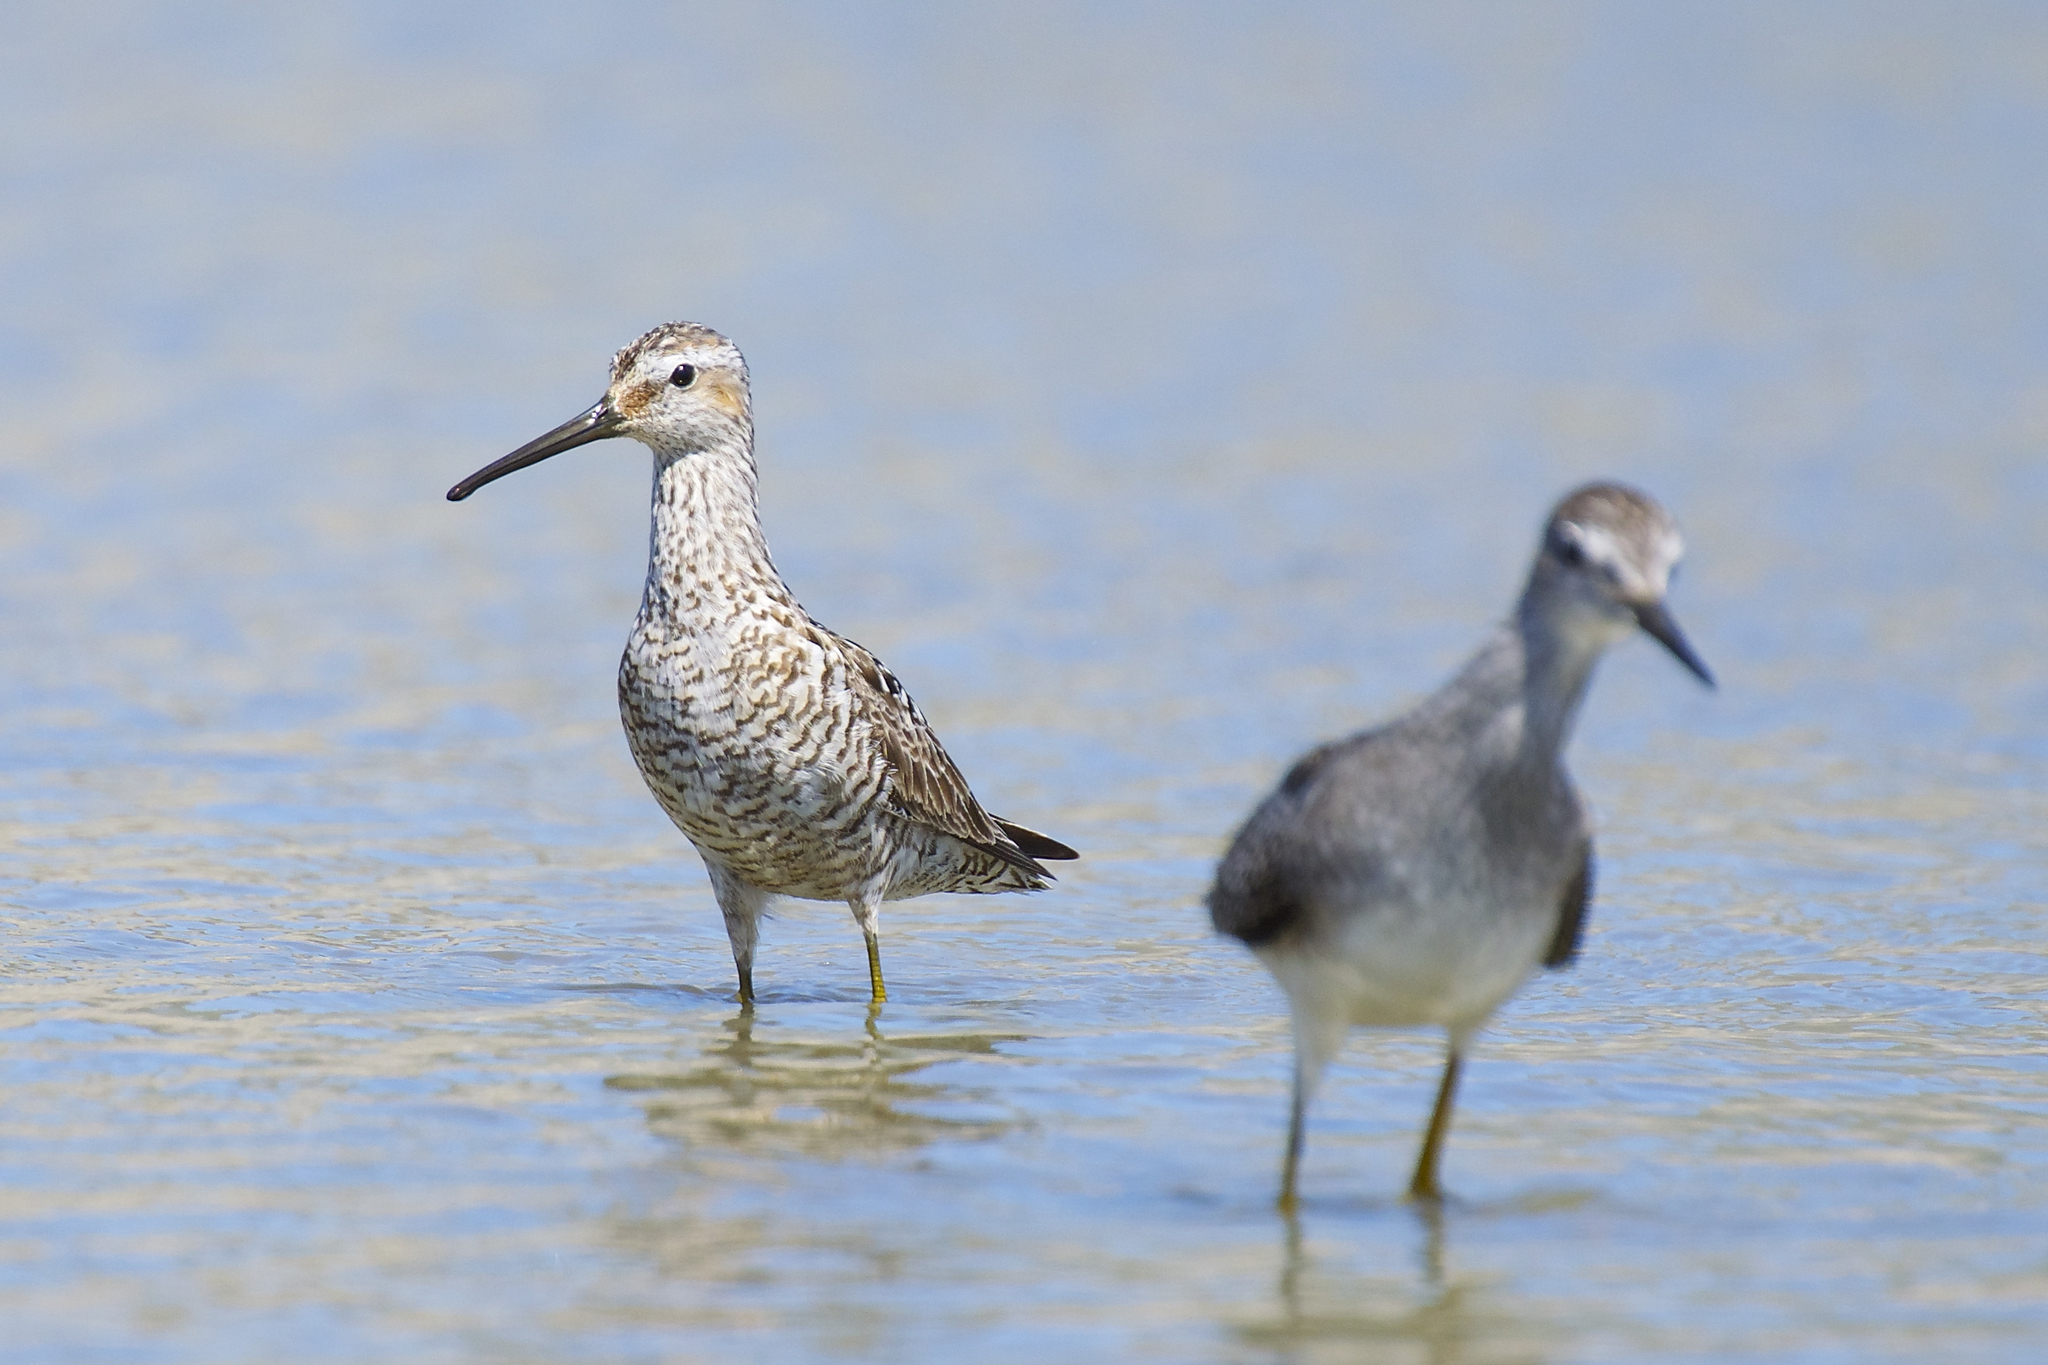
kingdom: Animalia
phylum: Chordata
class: Aves
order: Charadriiformes
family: Scolopacidae
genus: Calidris
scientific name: Calidris himantopus
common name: Stilt sandpiper
